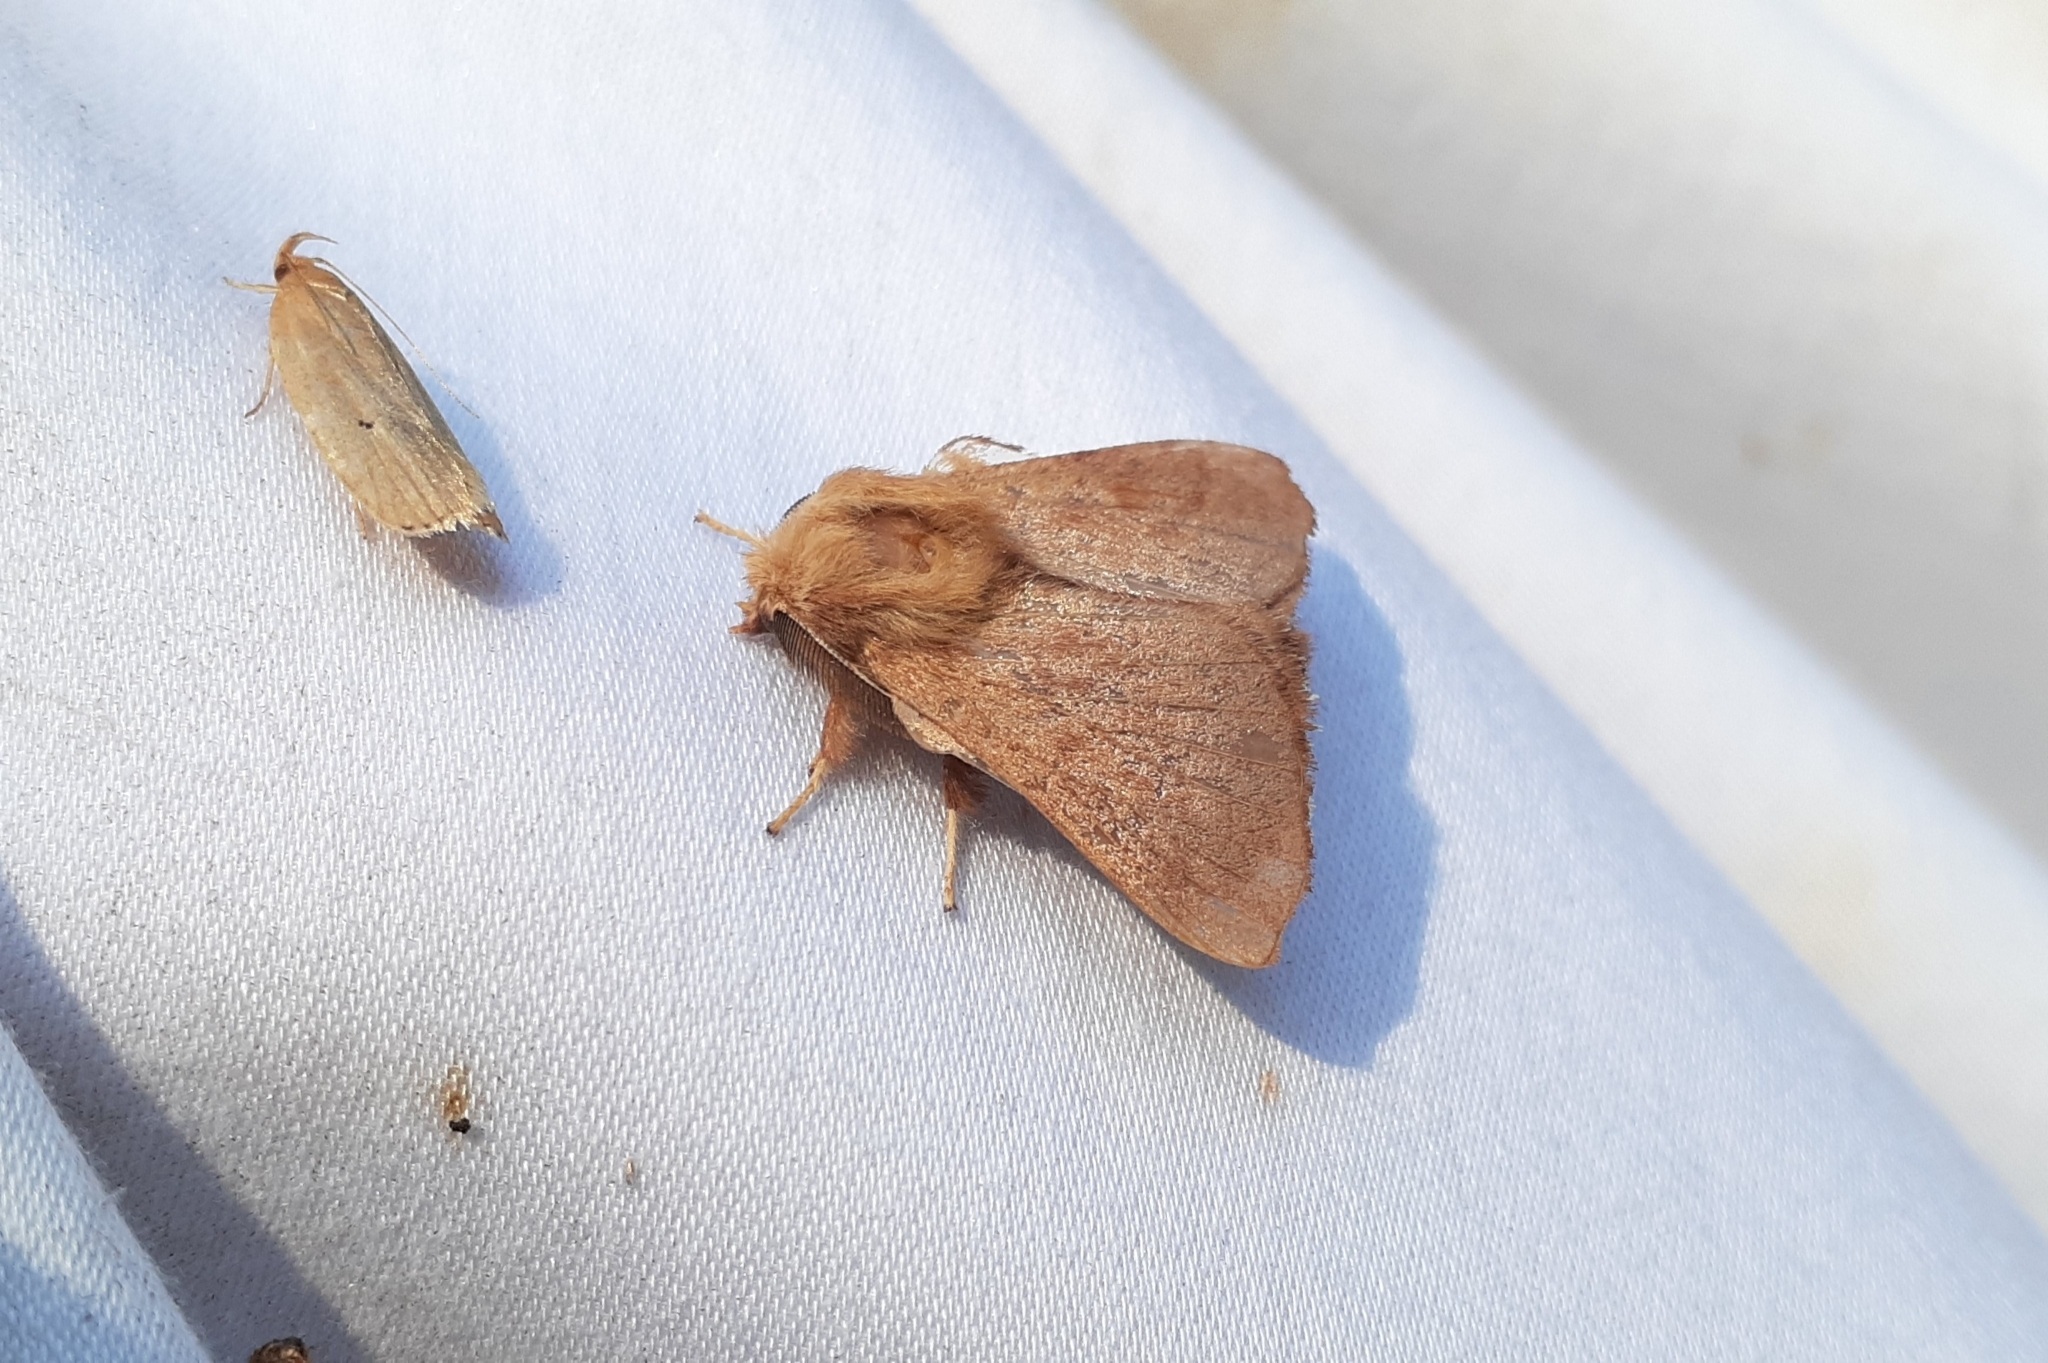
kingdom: Animalia
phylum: Arthropoda
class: Insecta
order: Lepidoptera
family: Lasiocampidae
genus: Malacosoma
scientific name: Malacosoma disstria
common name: Forest tent caterpillar
